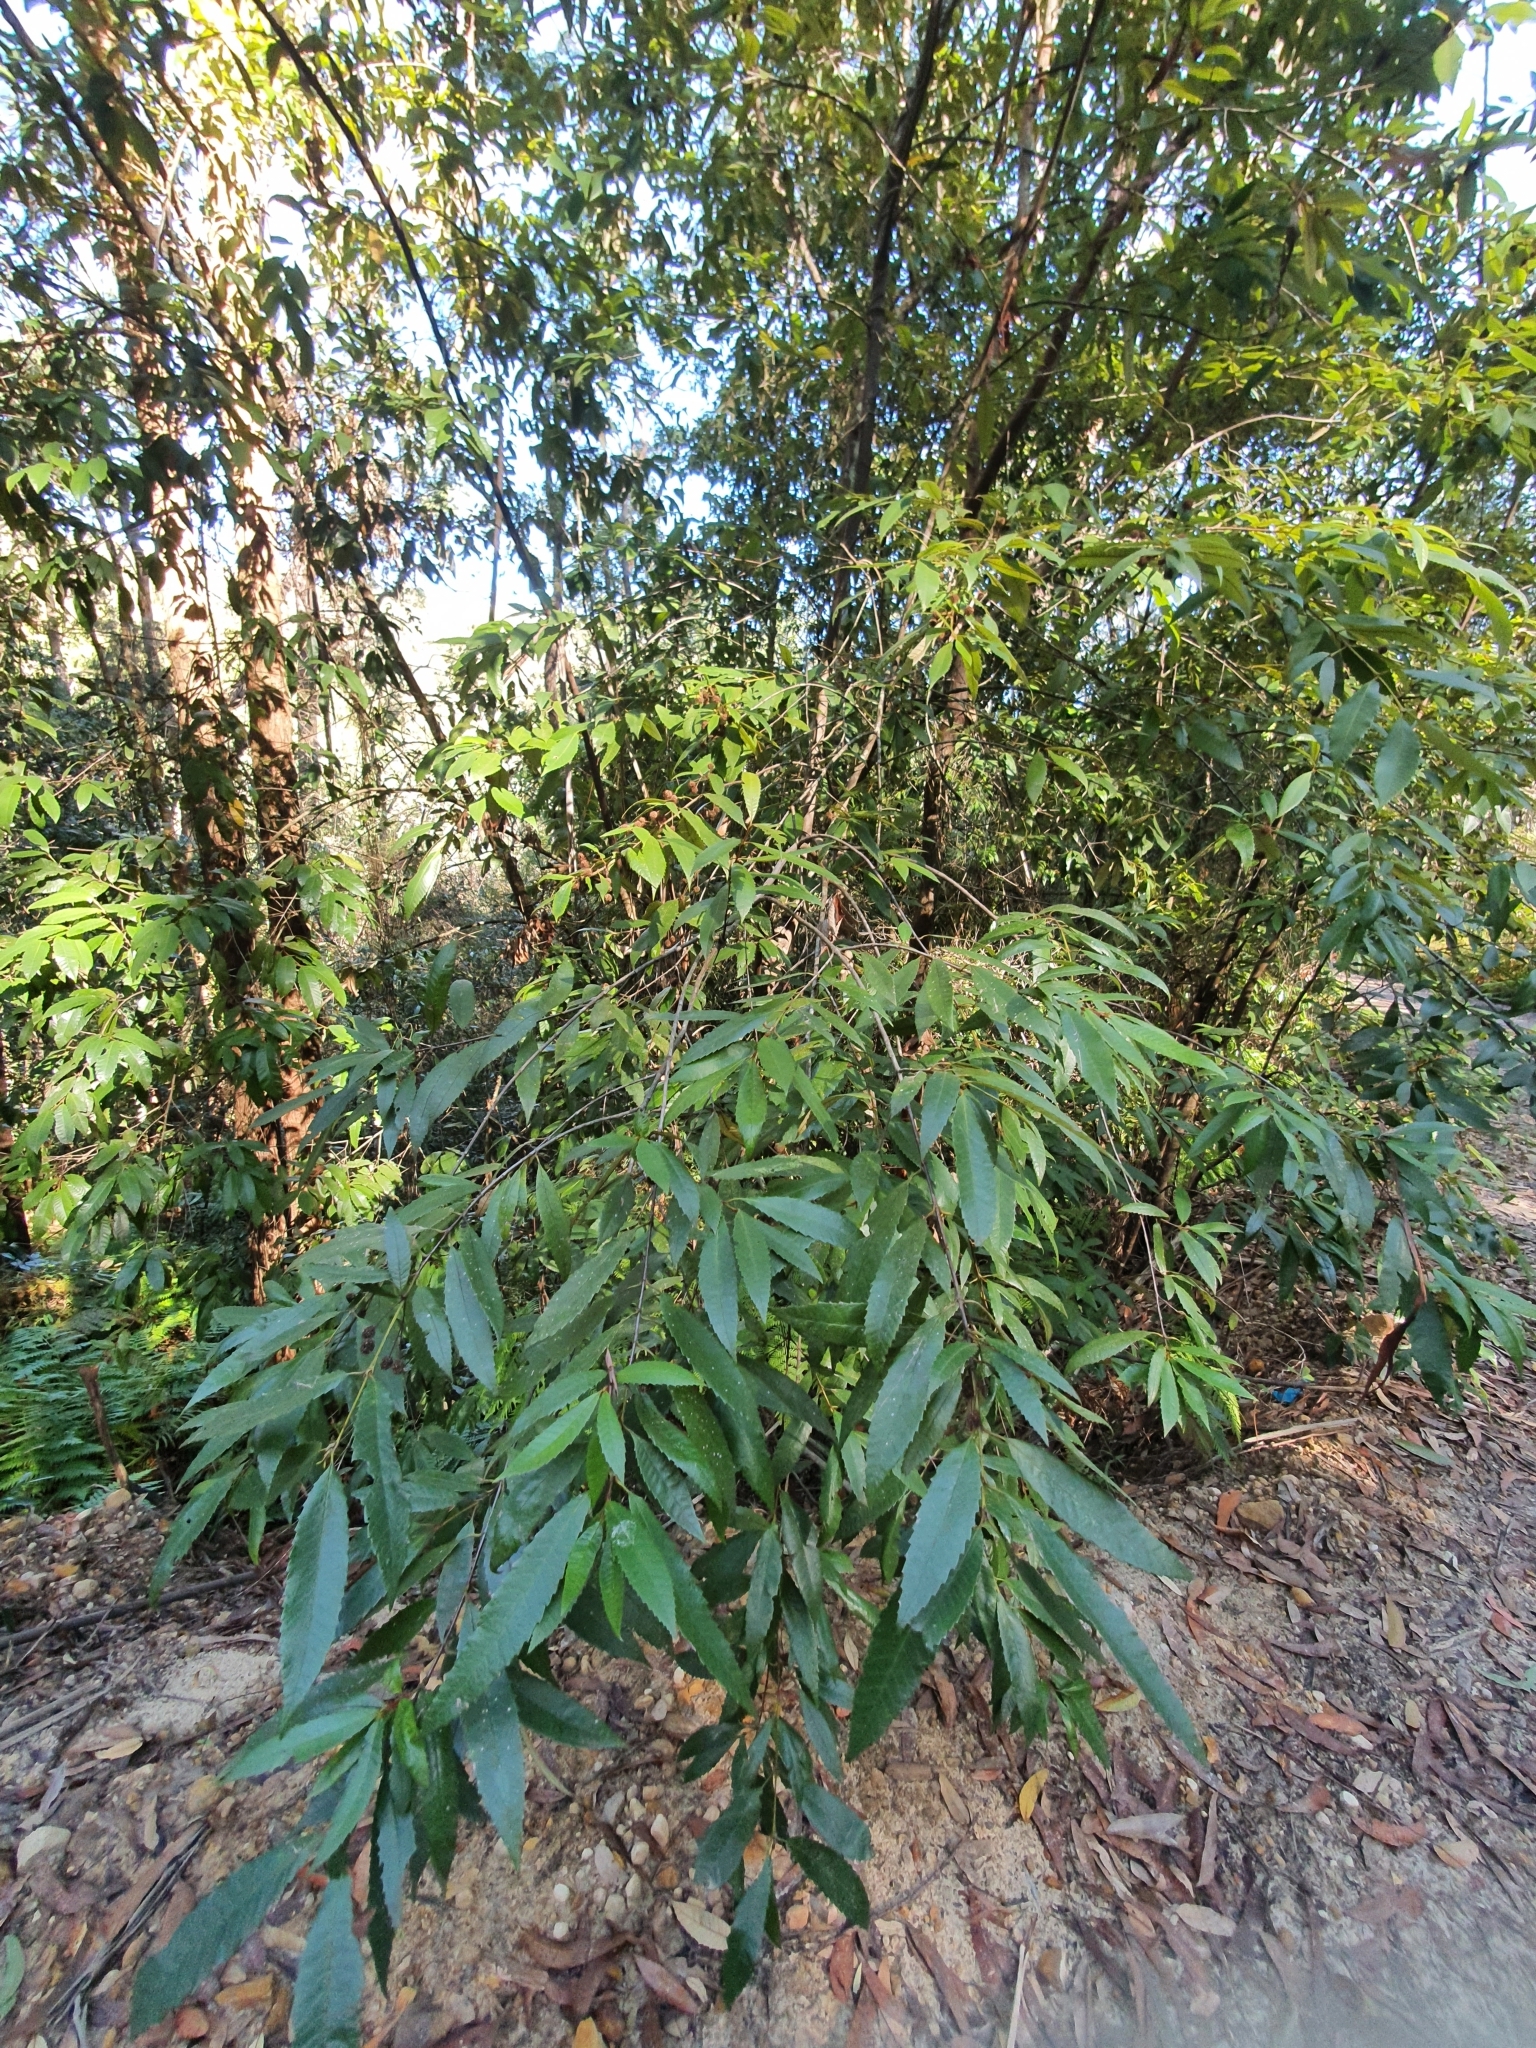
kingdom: Plantae
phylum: Tracheophyta
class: Magnoliopsida
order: Oxalidales
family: Cunoniaceae
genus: Callicoma
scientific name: Callicoma serratifolia
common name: Black wattle
